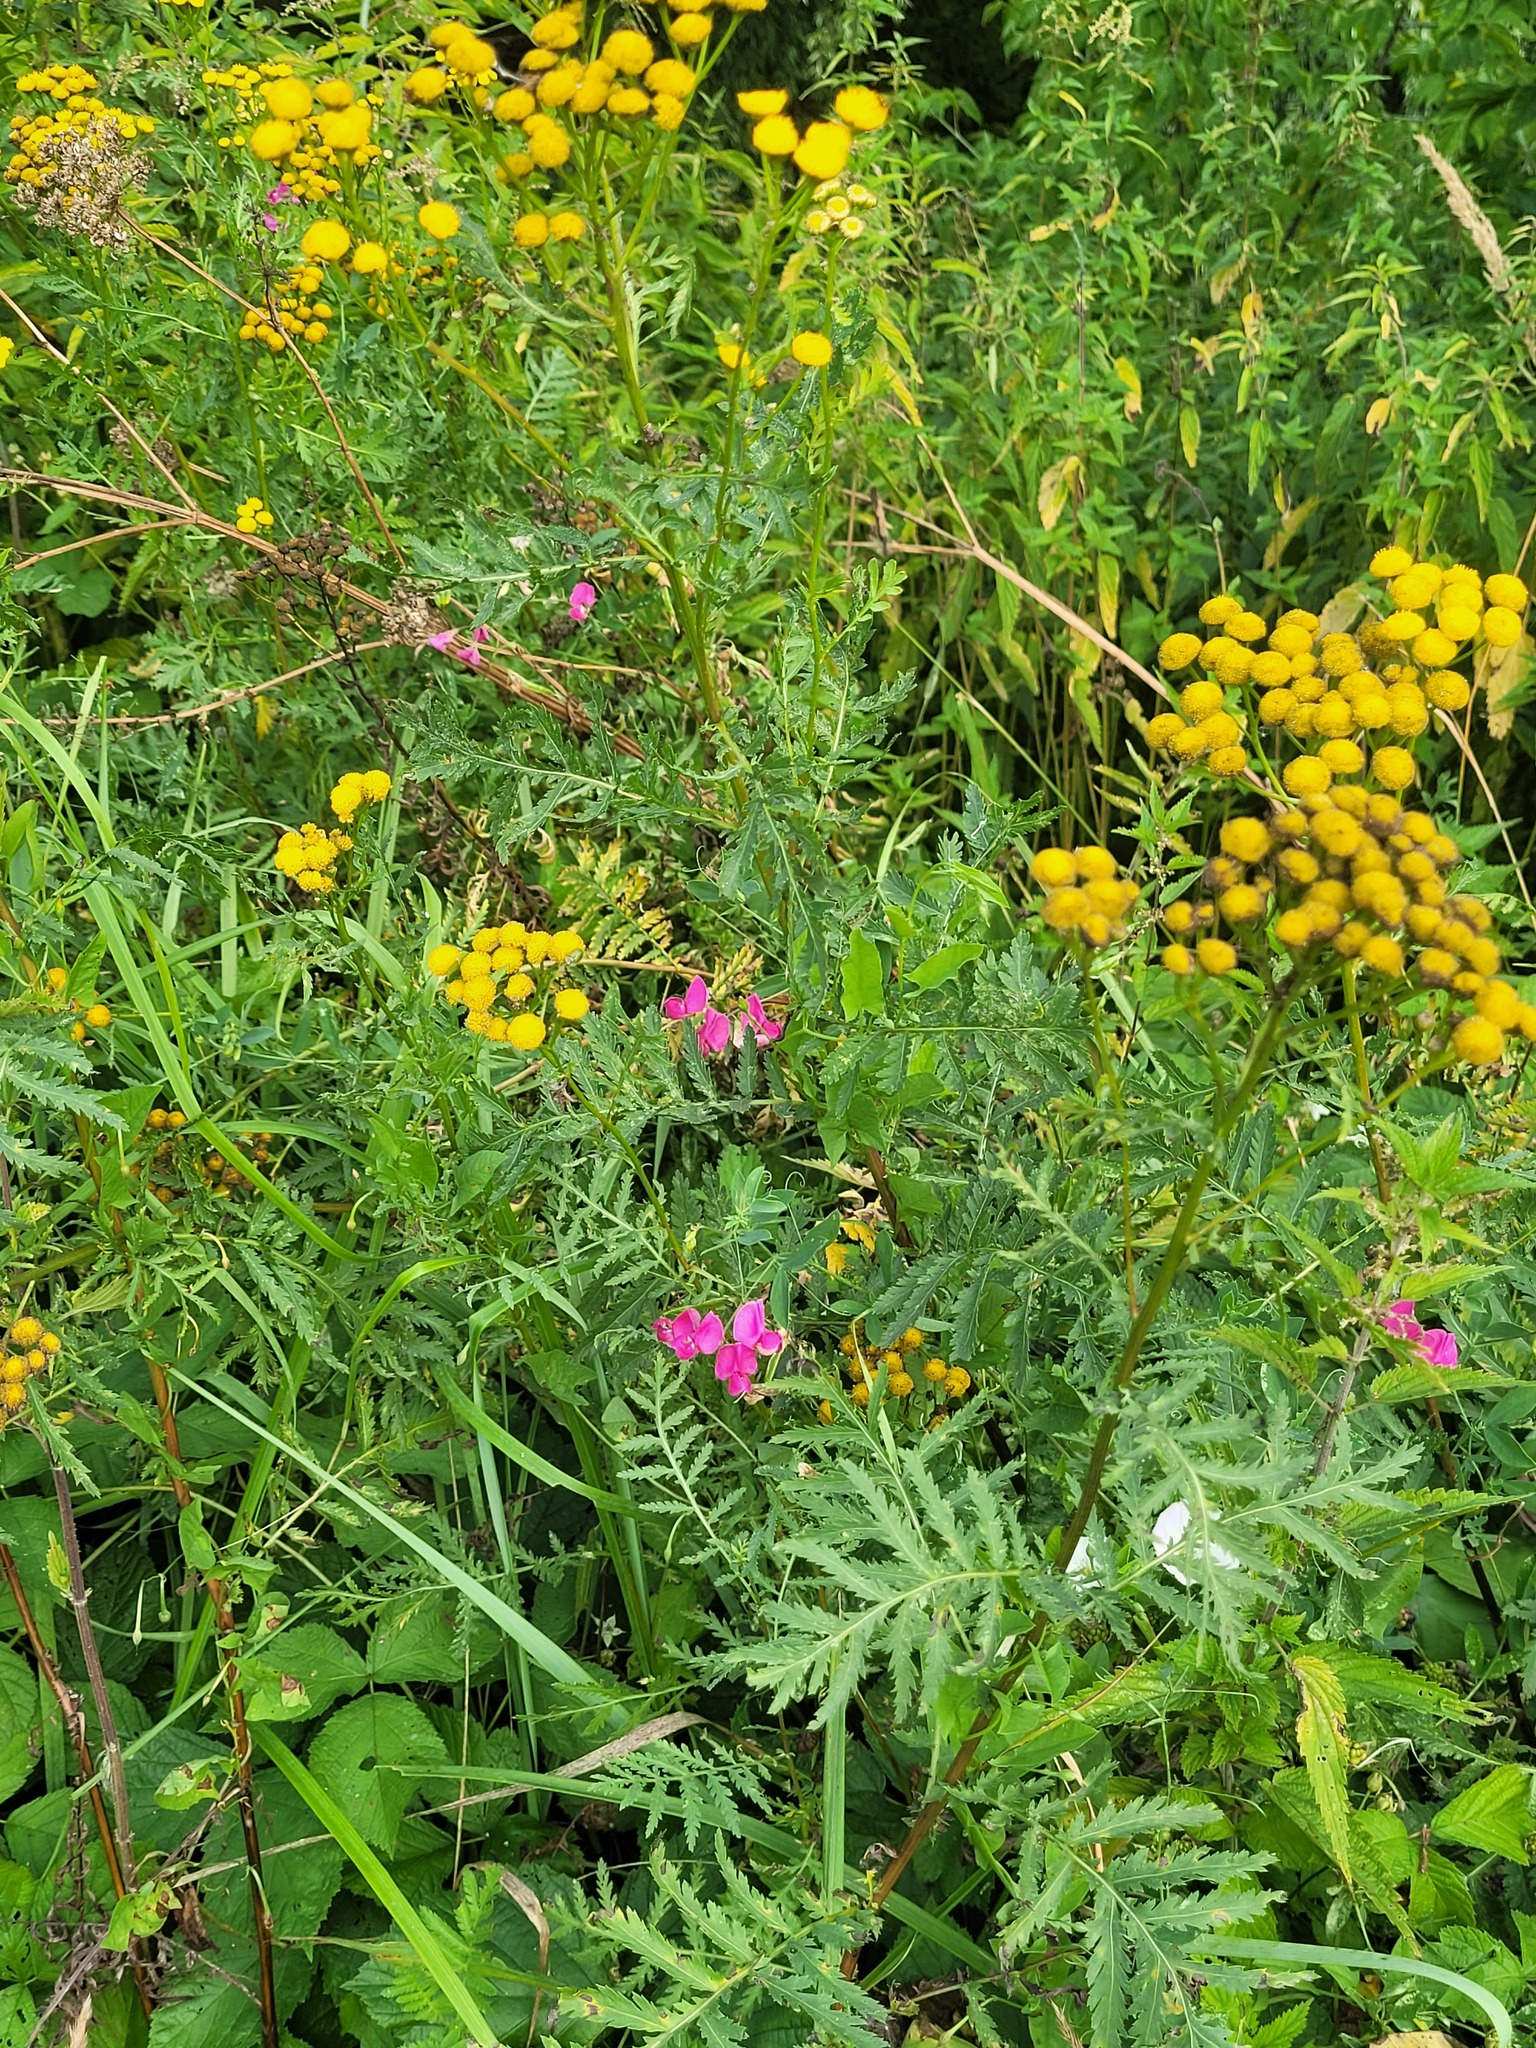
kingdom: Plantae
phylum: Tracheophyta
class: Magnoliopsida
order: Fabales
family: Fabaceae
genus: Lathyrus
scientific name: Lathyrus tuberosus
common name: Tuberous pea
